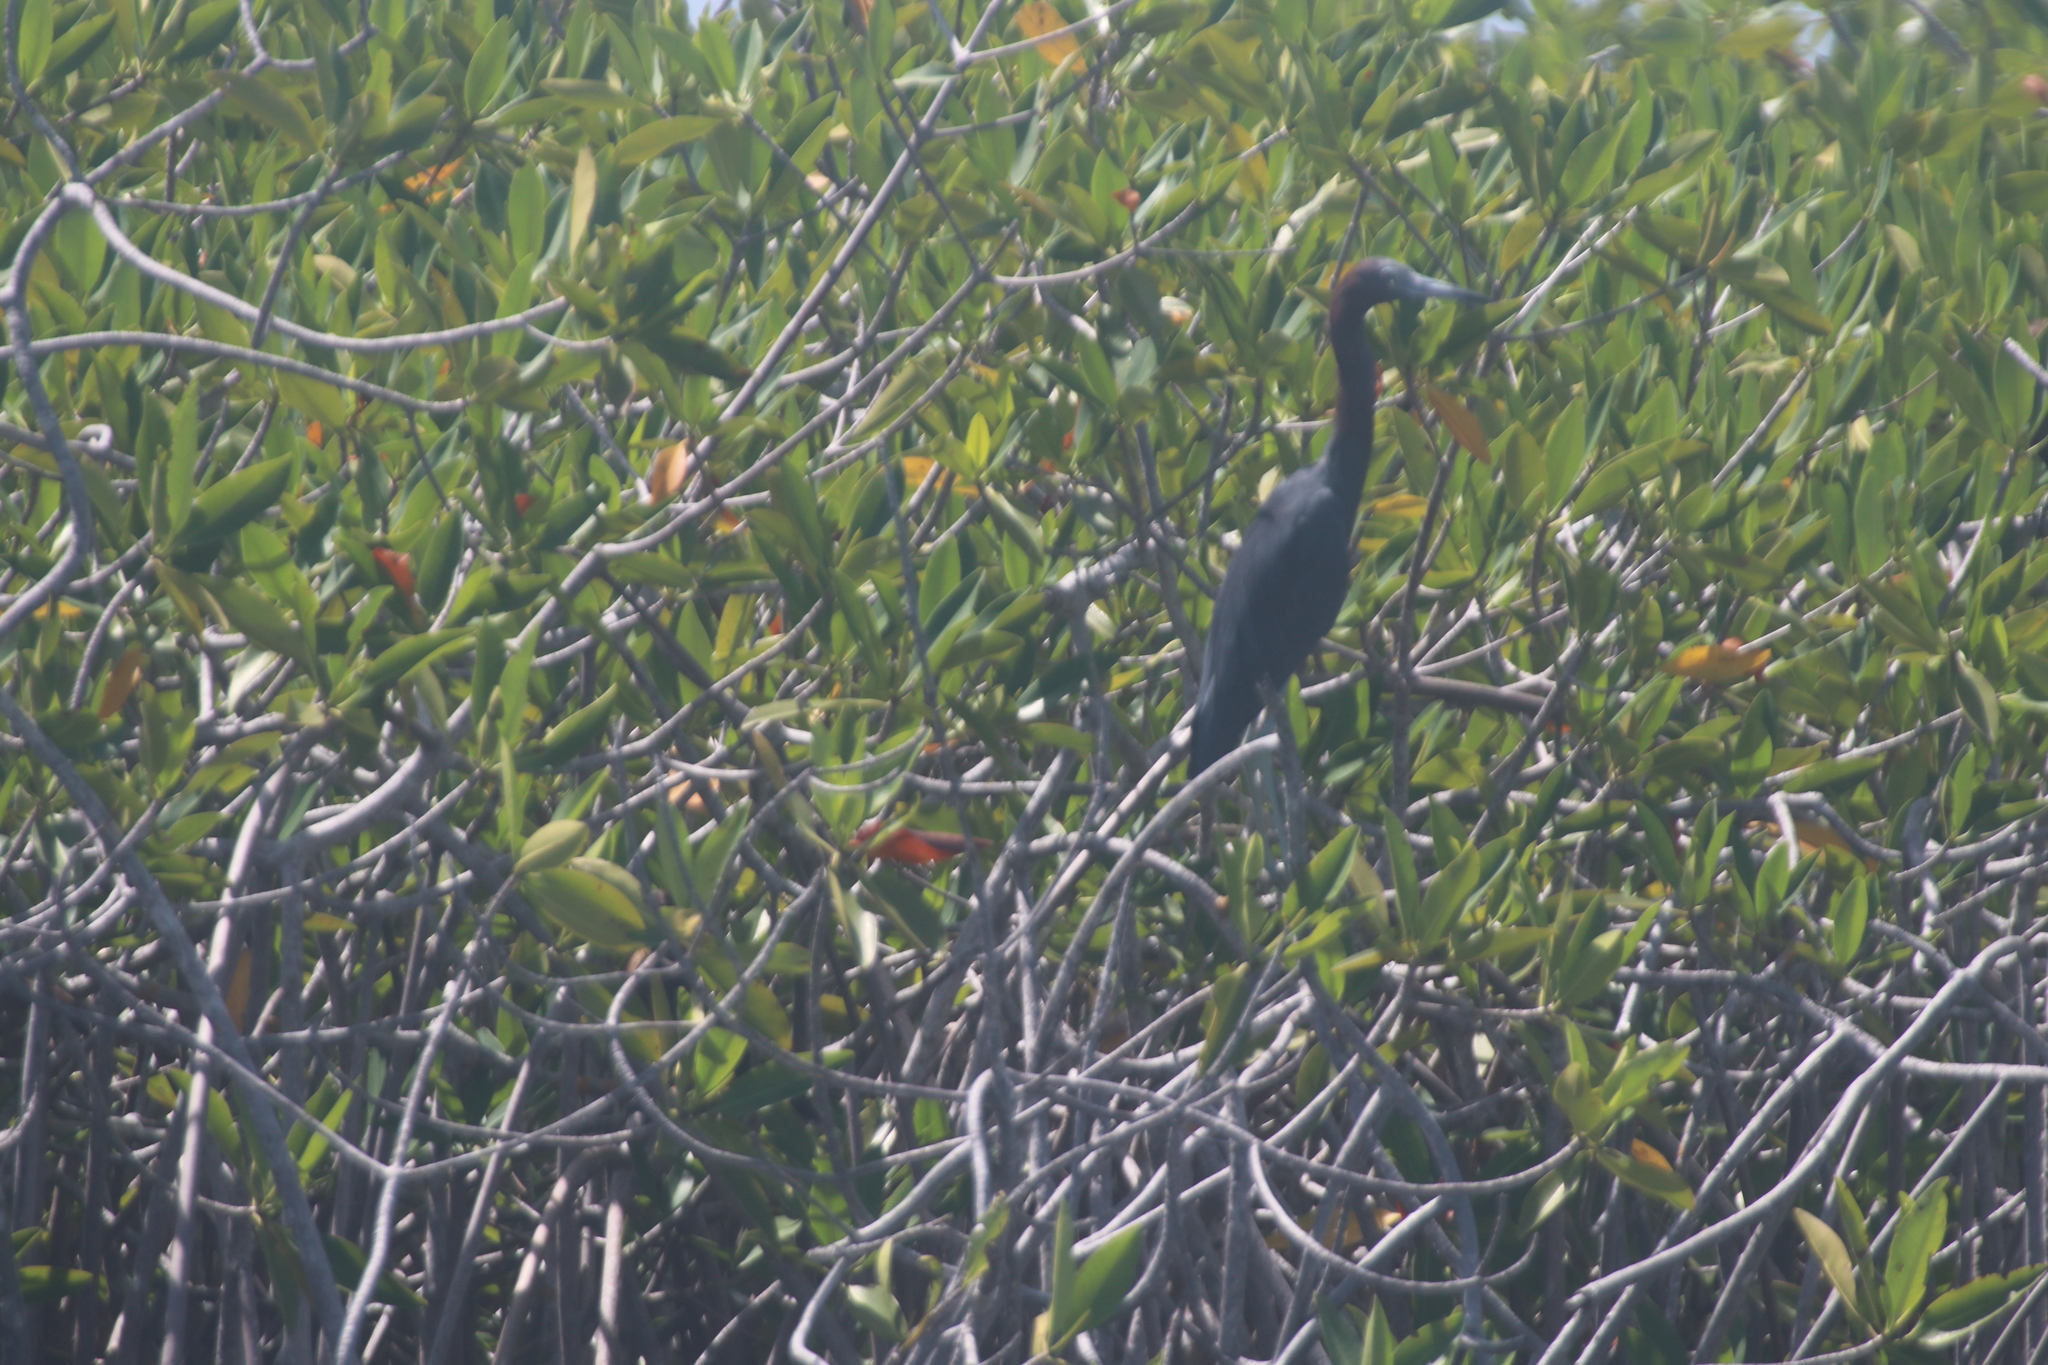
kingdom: Animalia
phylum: Chordata
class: Aves
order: Pelecaniformes
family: Ardeidae
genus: Egretta
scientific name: Egretta caerulea
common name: Little blue heron
